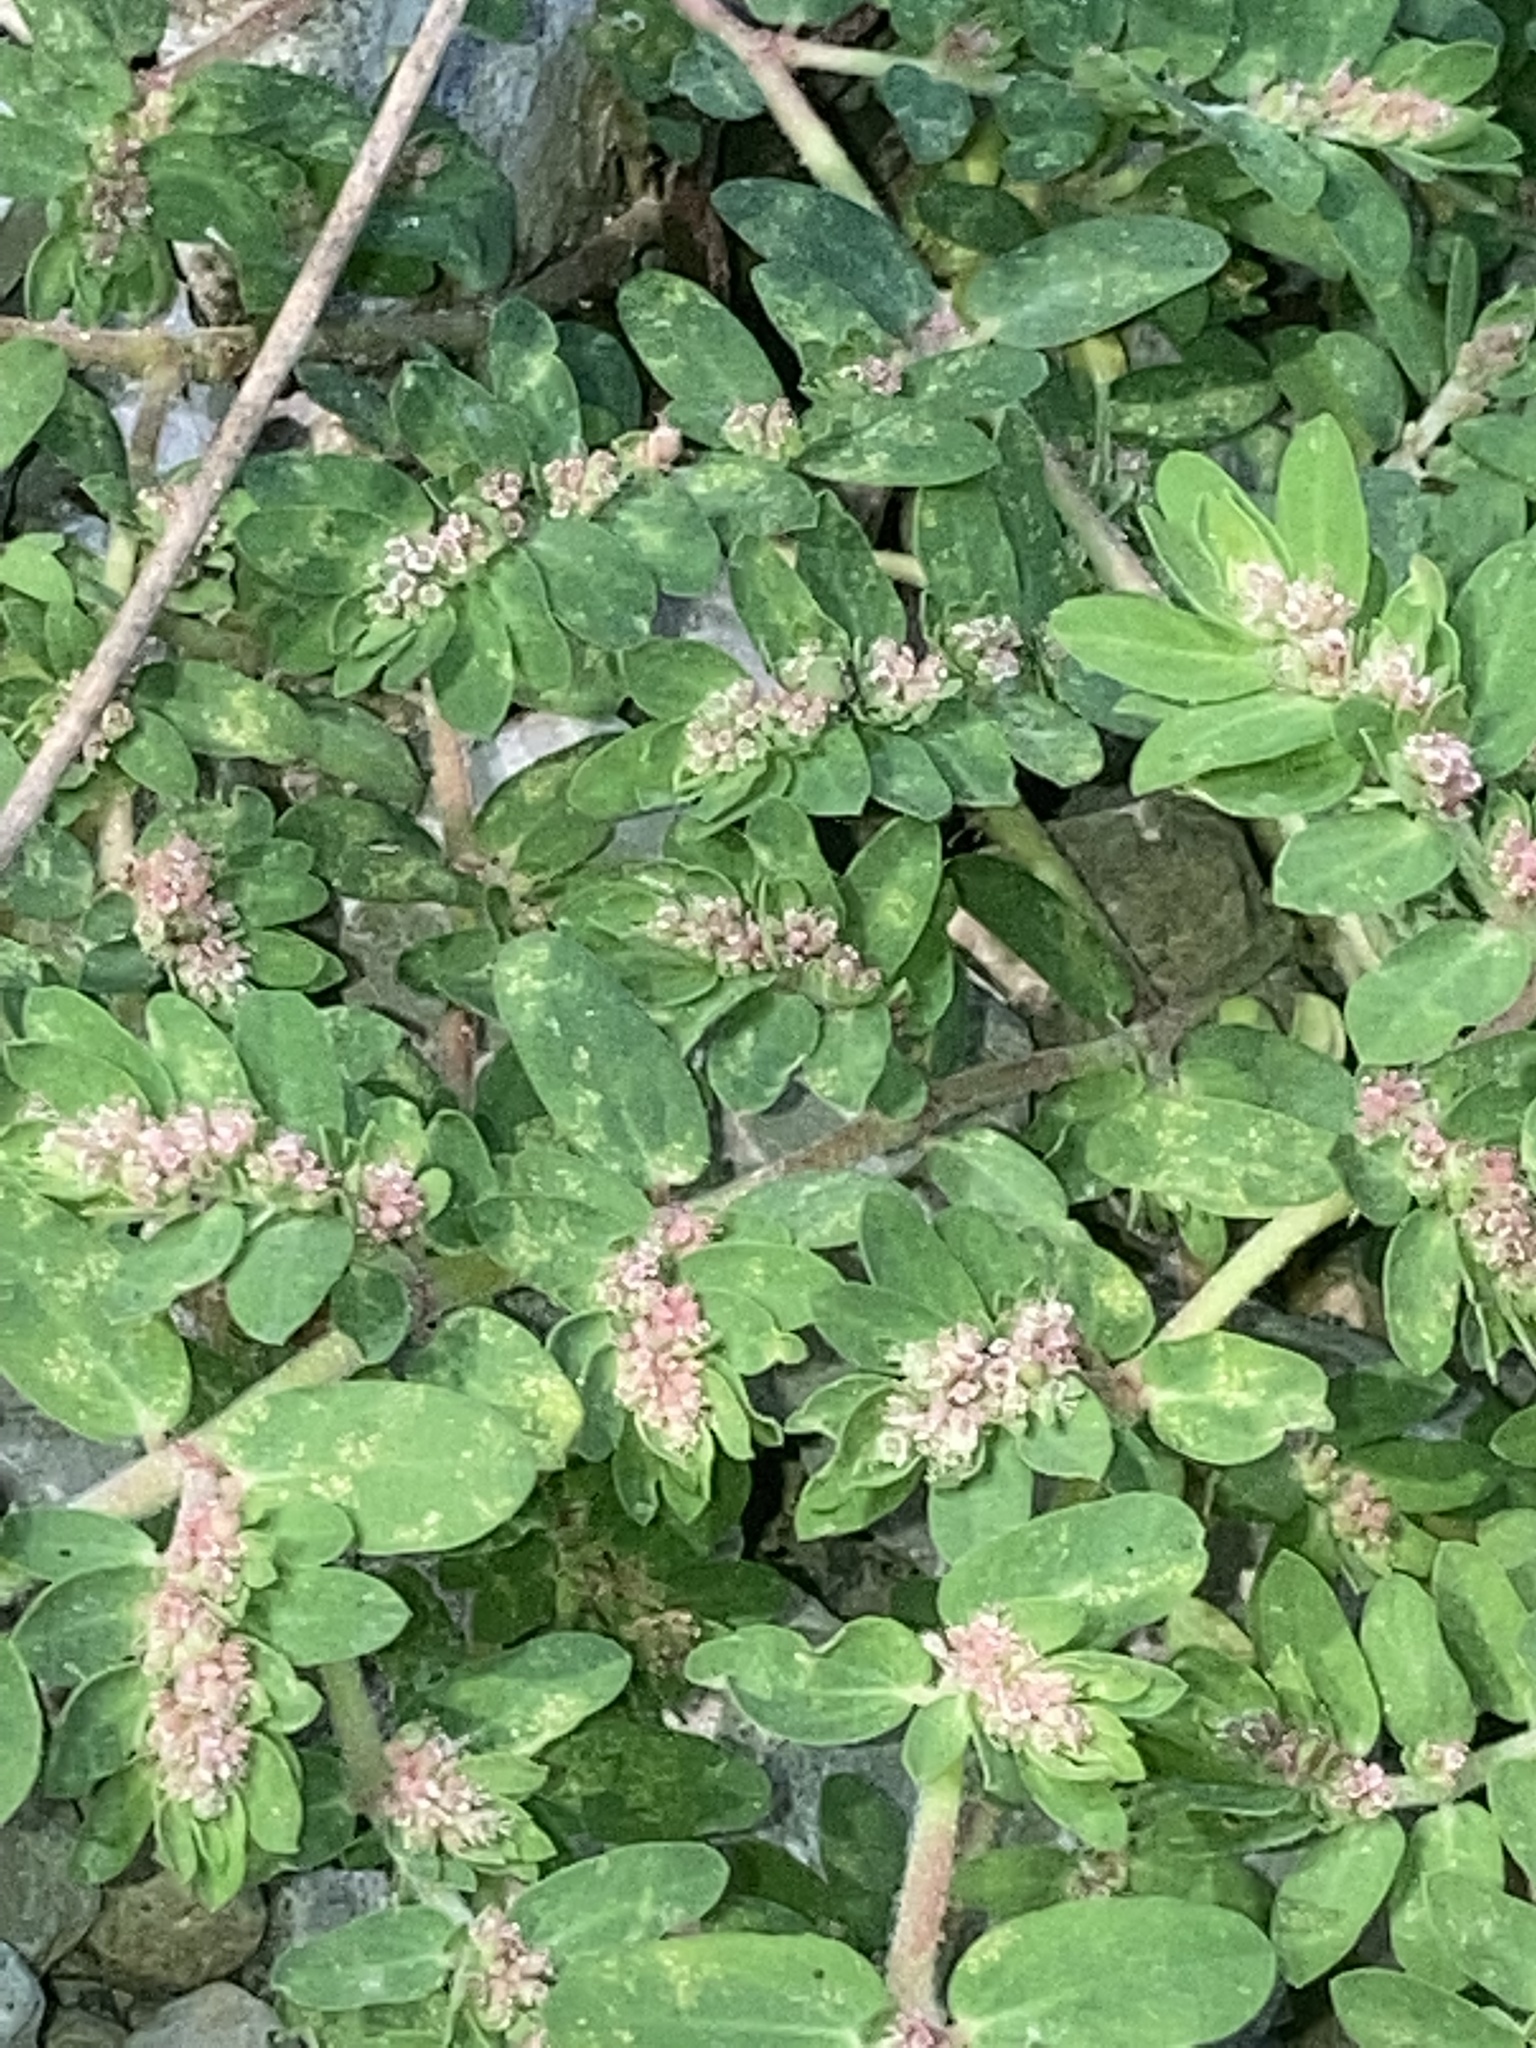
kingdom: Plantae
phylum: Tracheophyta
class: Magnoliopsida
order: Malpighiales
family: Euphorbiaceae
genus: Euphorbia
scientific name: Euphorbia humistrata
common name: Hairy spreading spurge
